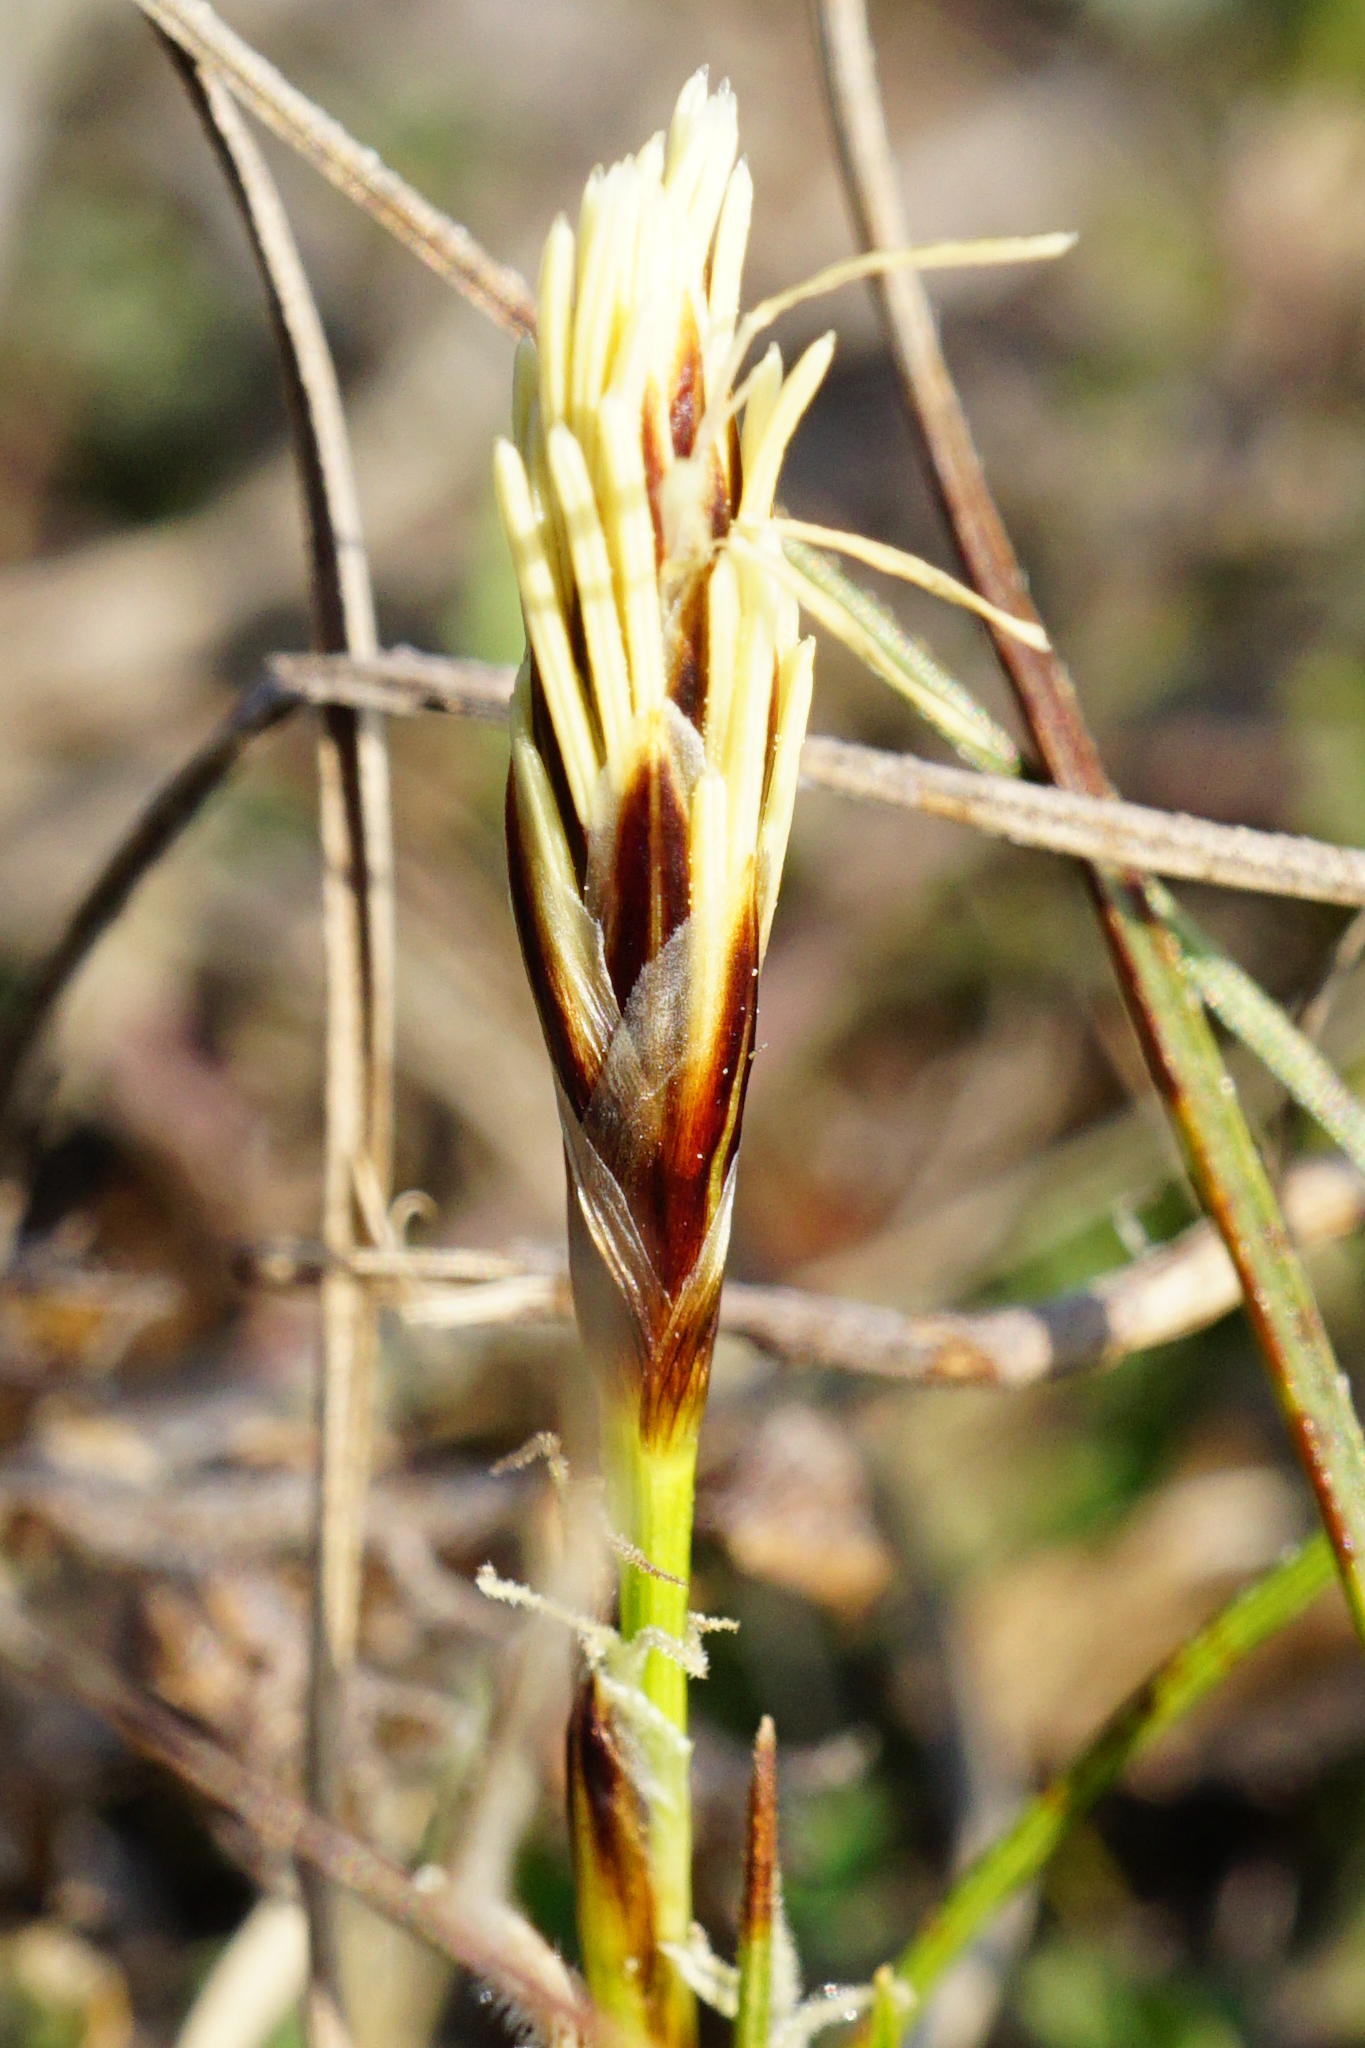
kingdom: Plantae
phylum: Tracheophyta
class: Liliopsida
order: Poales
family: Cyperaceae
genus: Carex
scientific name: Carex humilis
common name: Dwarf sedge
